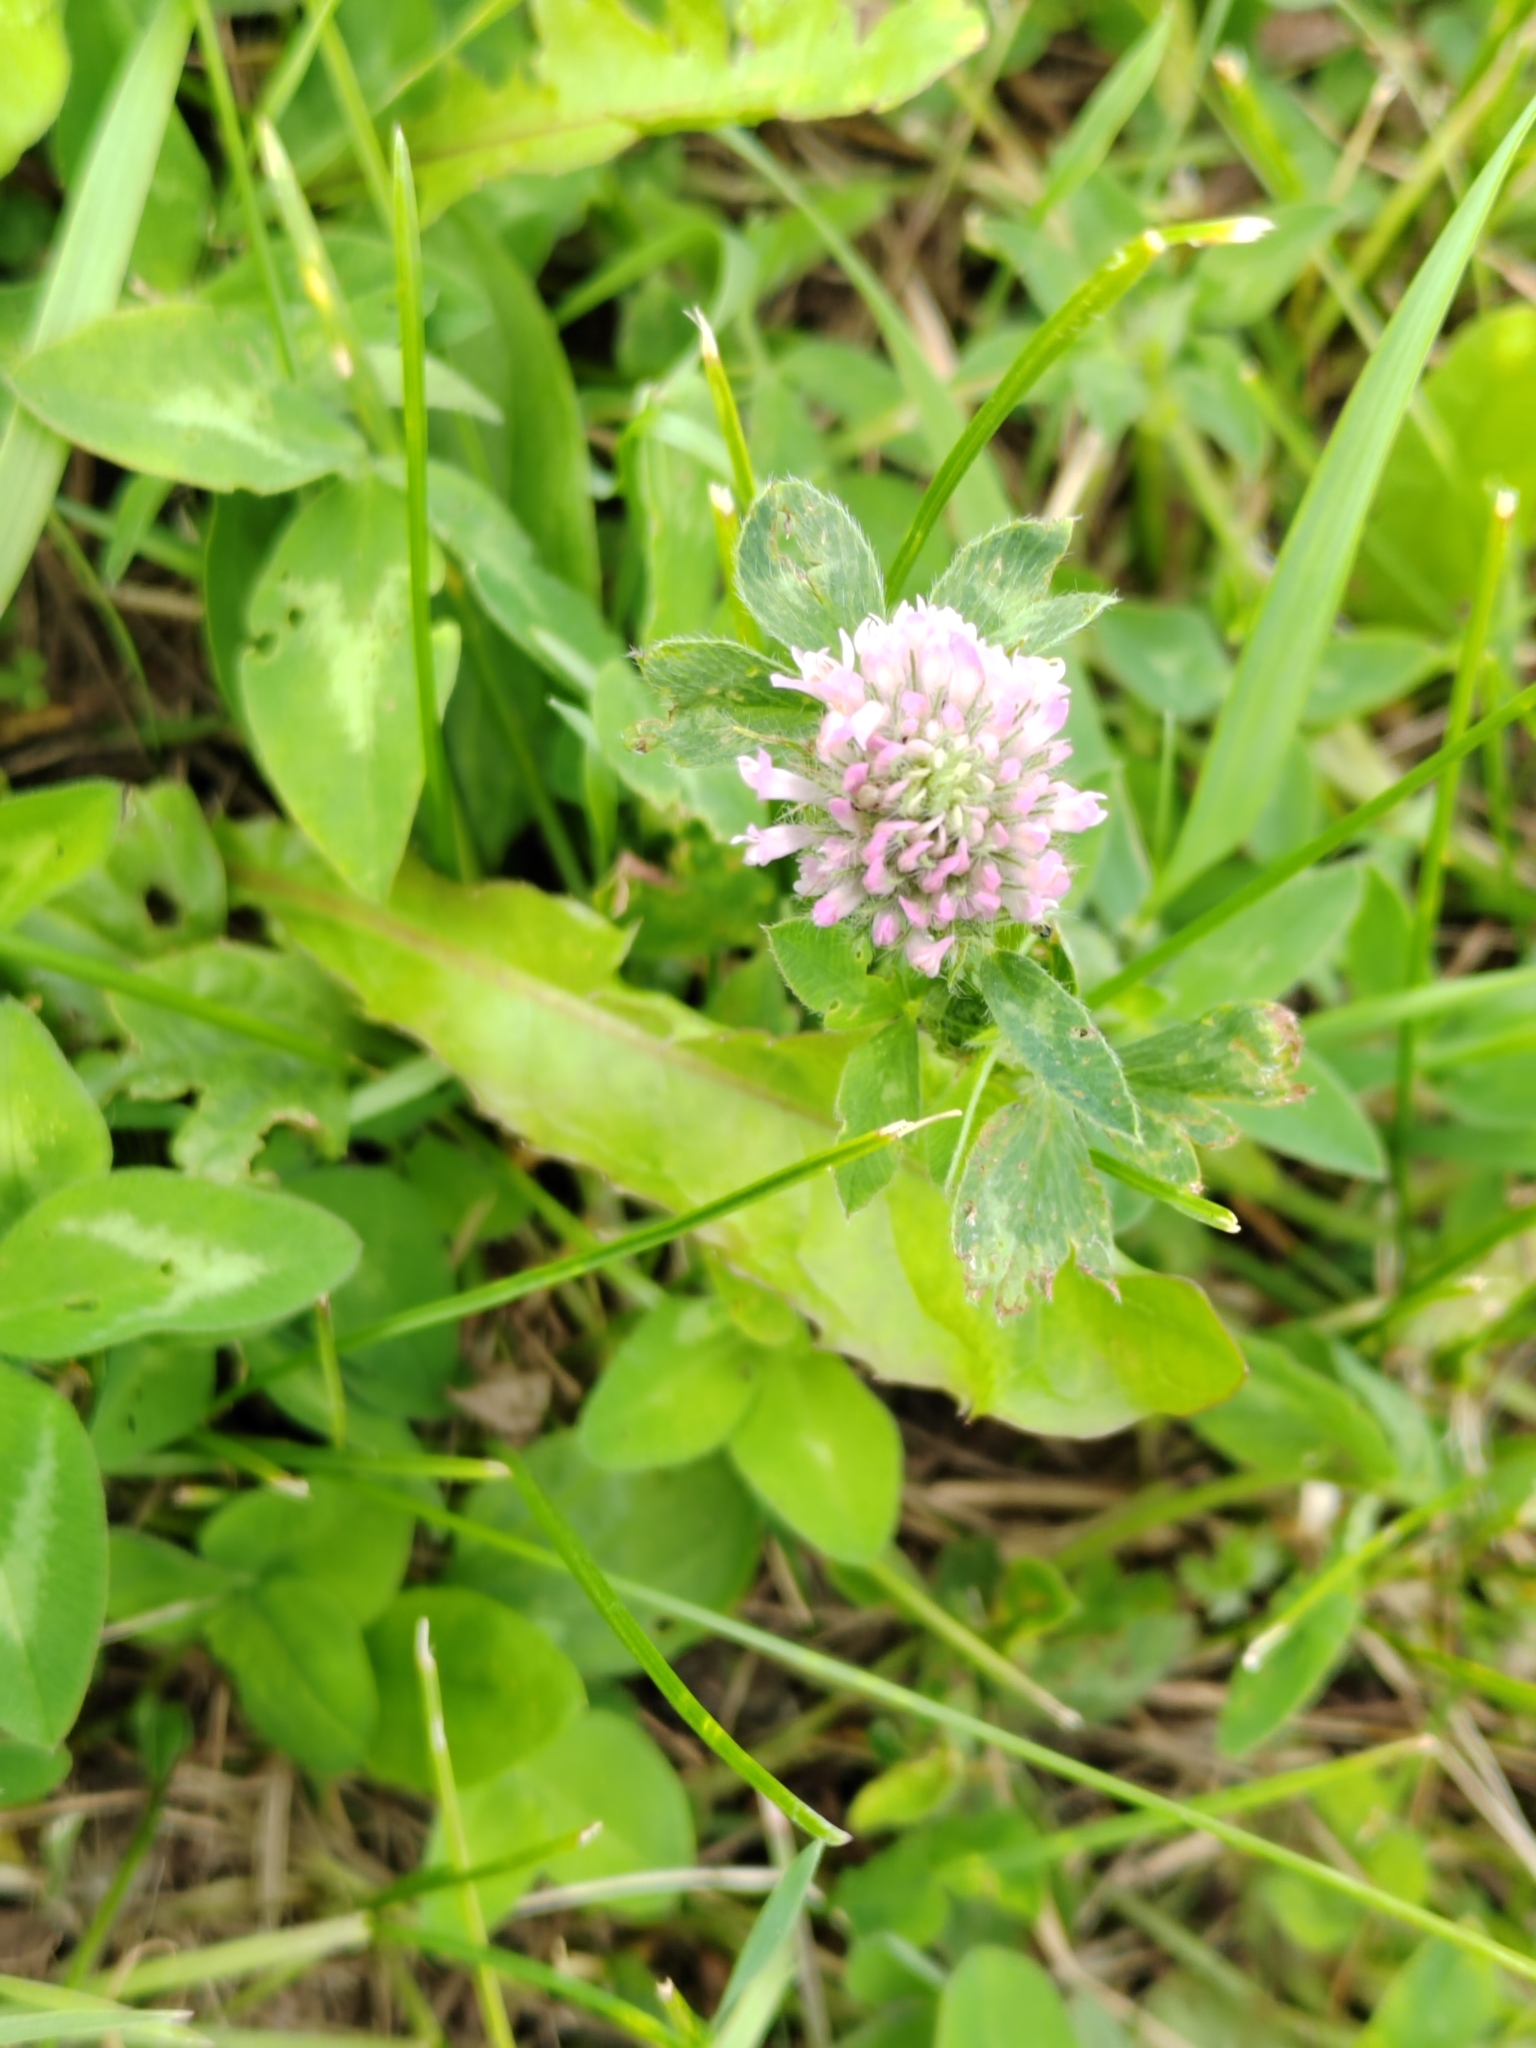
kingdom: Plantae
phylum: Tracheophyta
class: Magnoliopsida
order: Fabales
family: Fabaceae
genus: Trifolium
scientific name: Trifolium pratense
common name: Red clover
